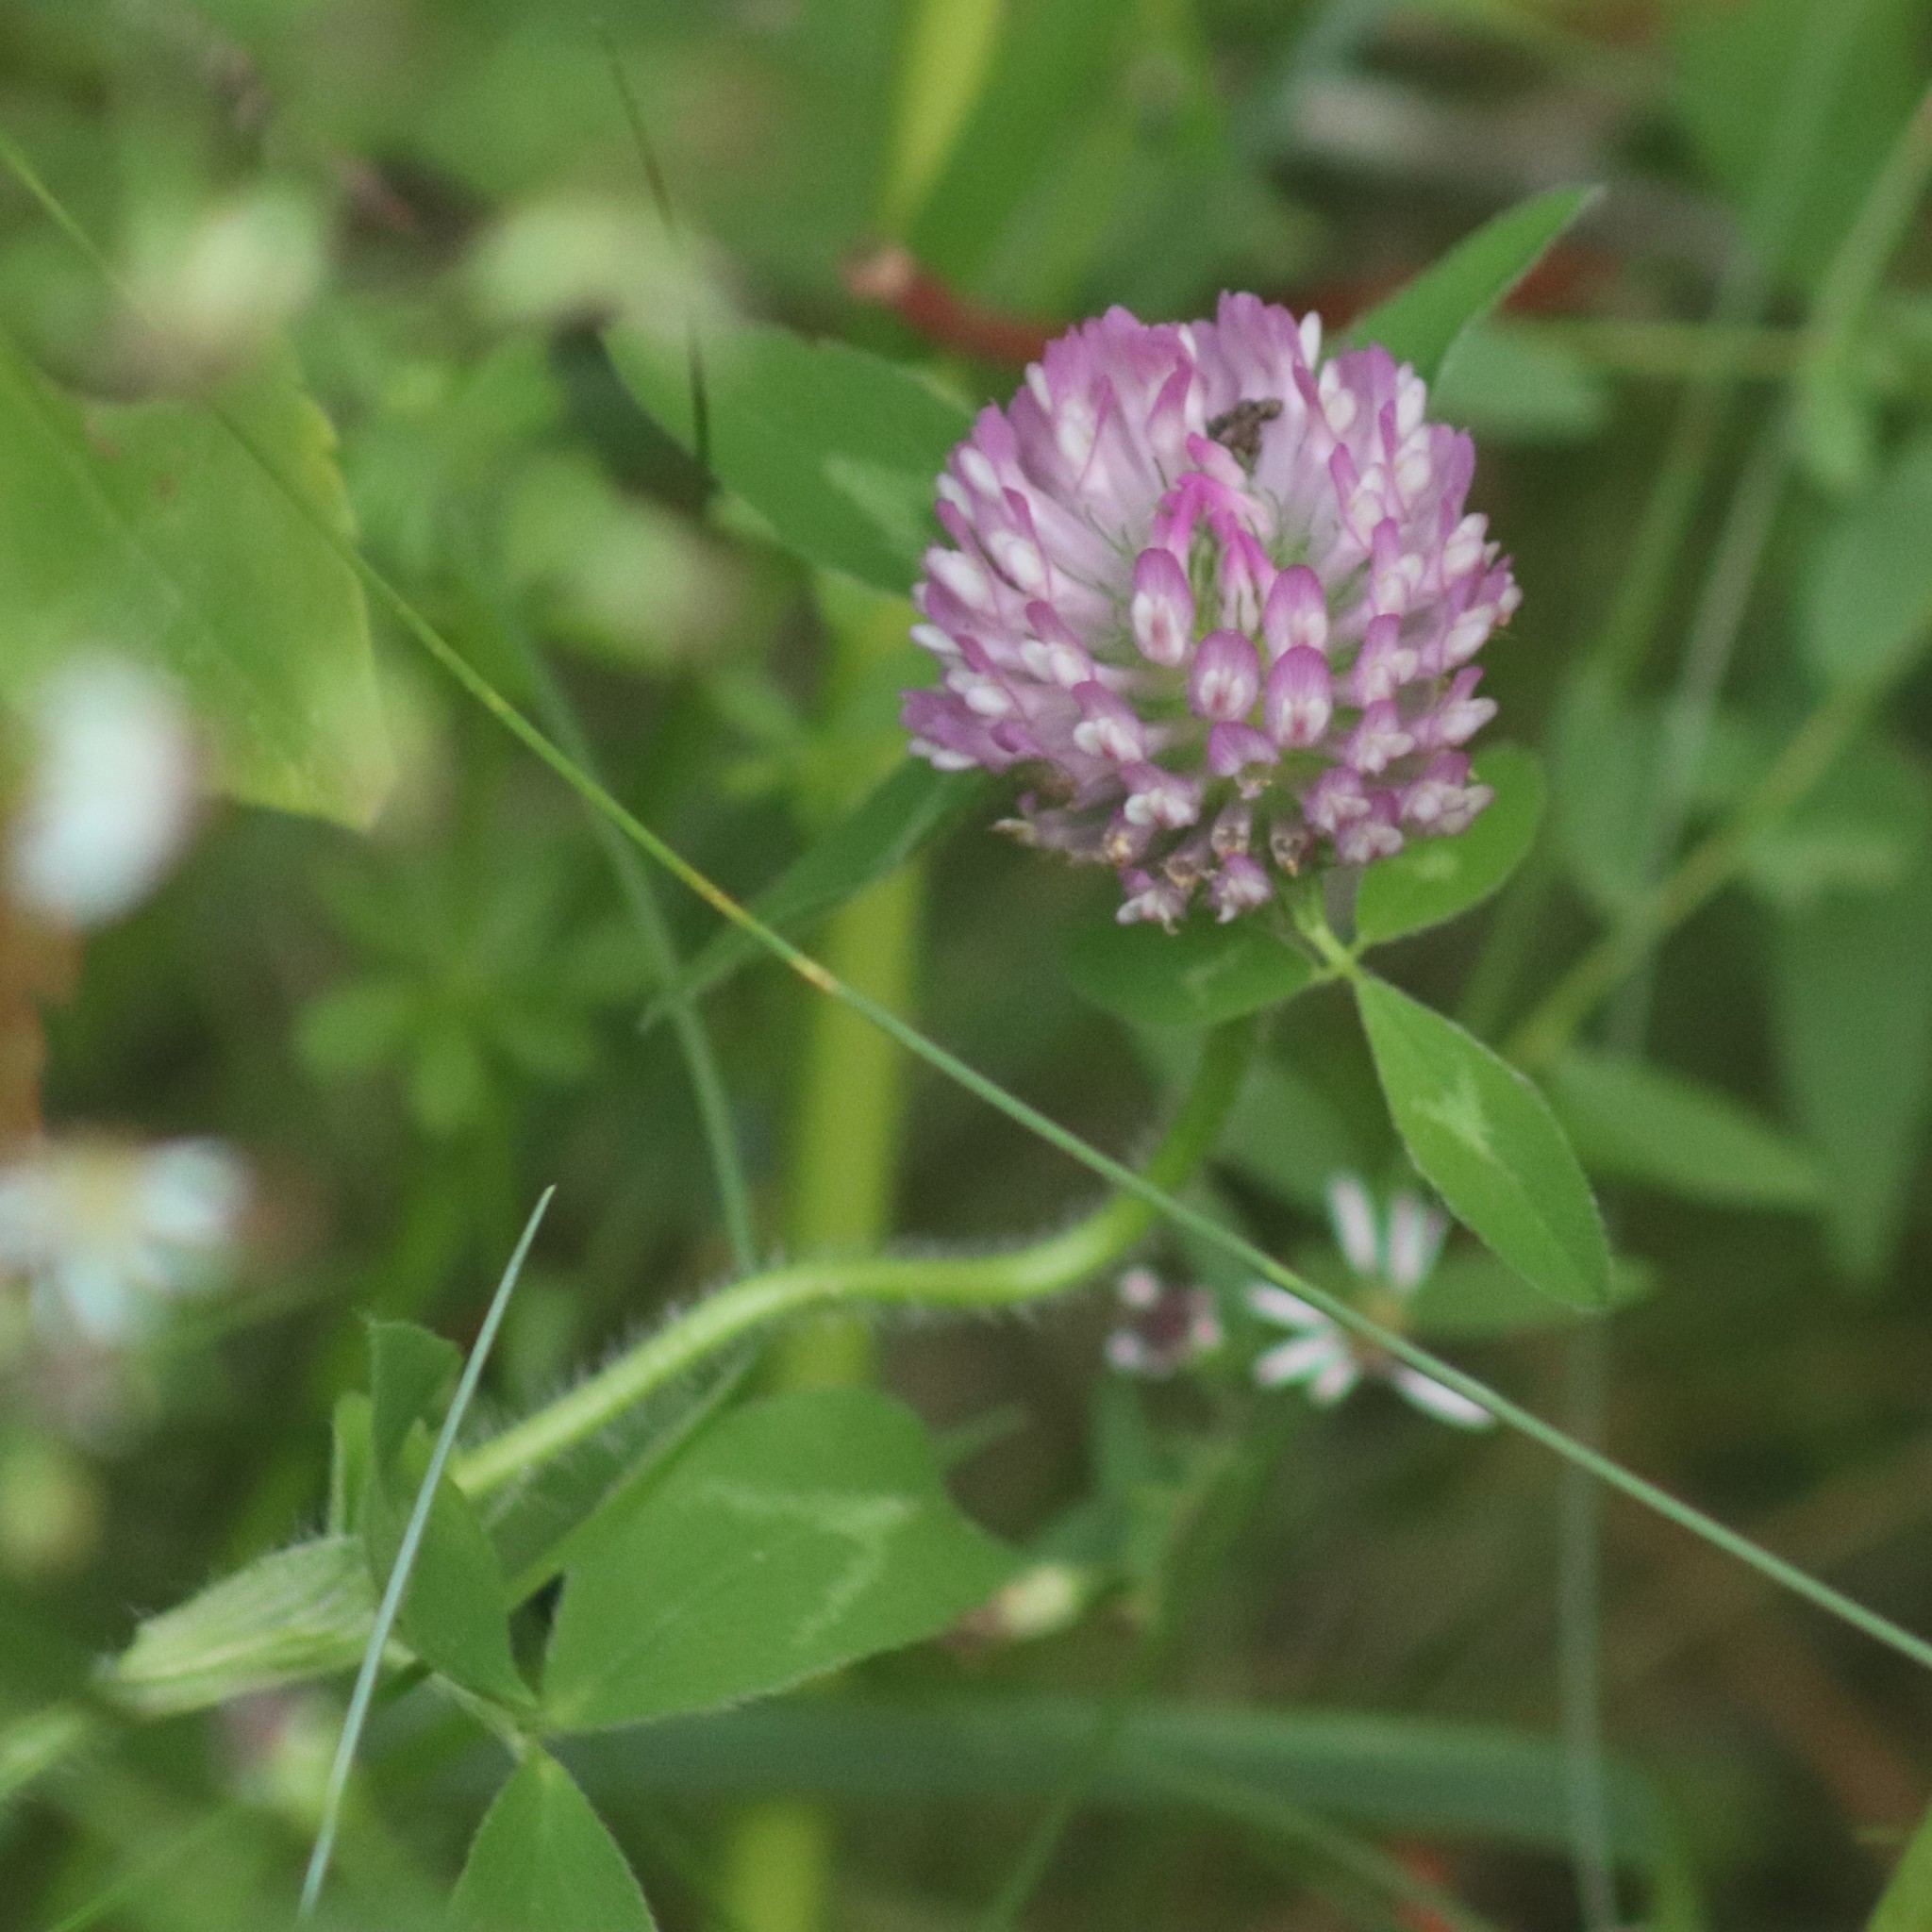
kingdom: Plantae
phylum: Tracheophyta
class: Magnoliopsida
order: Fabales
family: Fabaceae
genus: Trifolium
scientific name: Trifolium pratense
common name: Red clover
